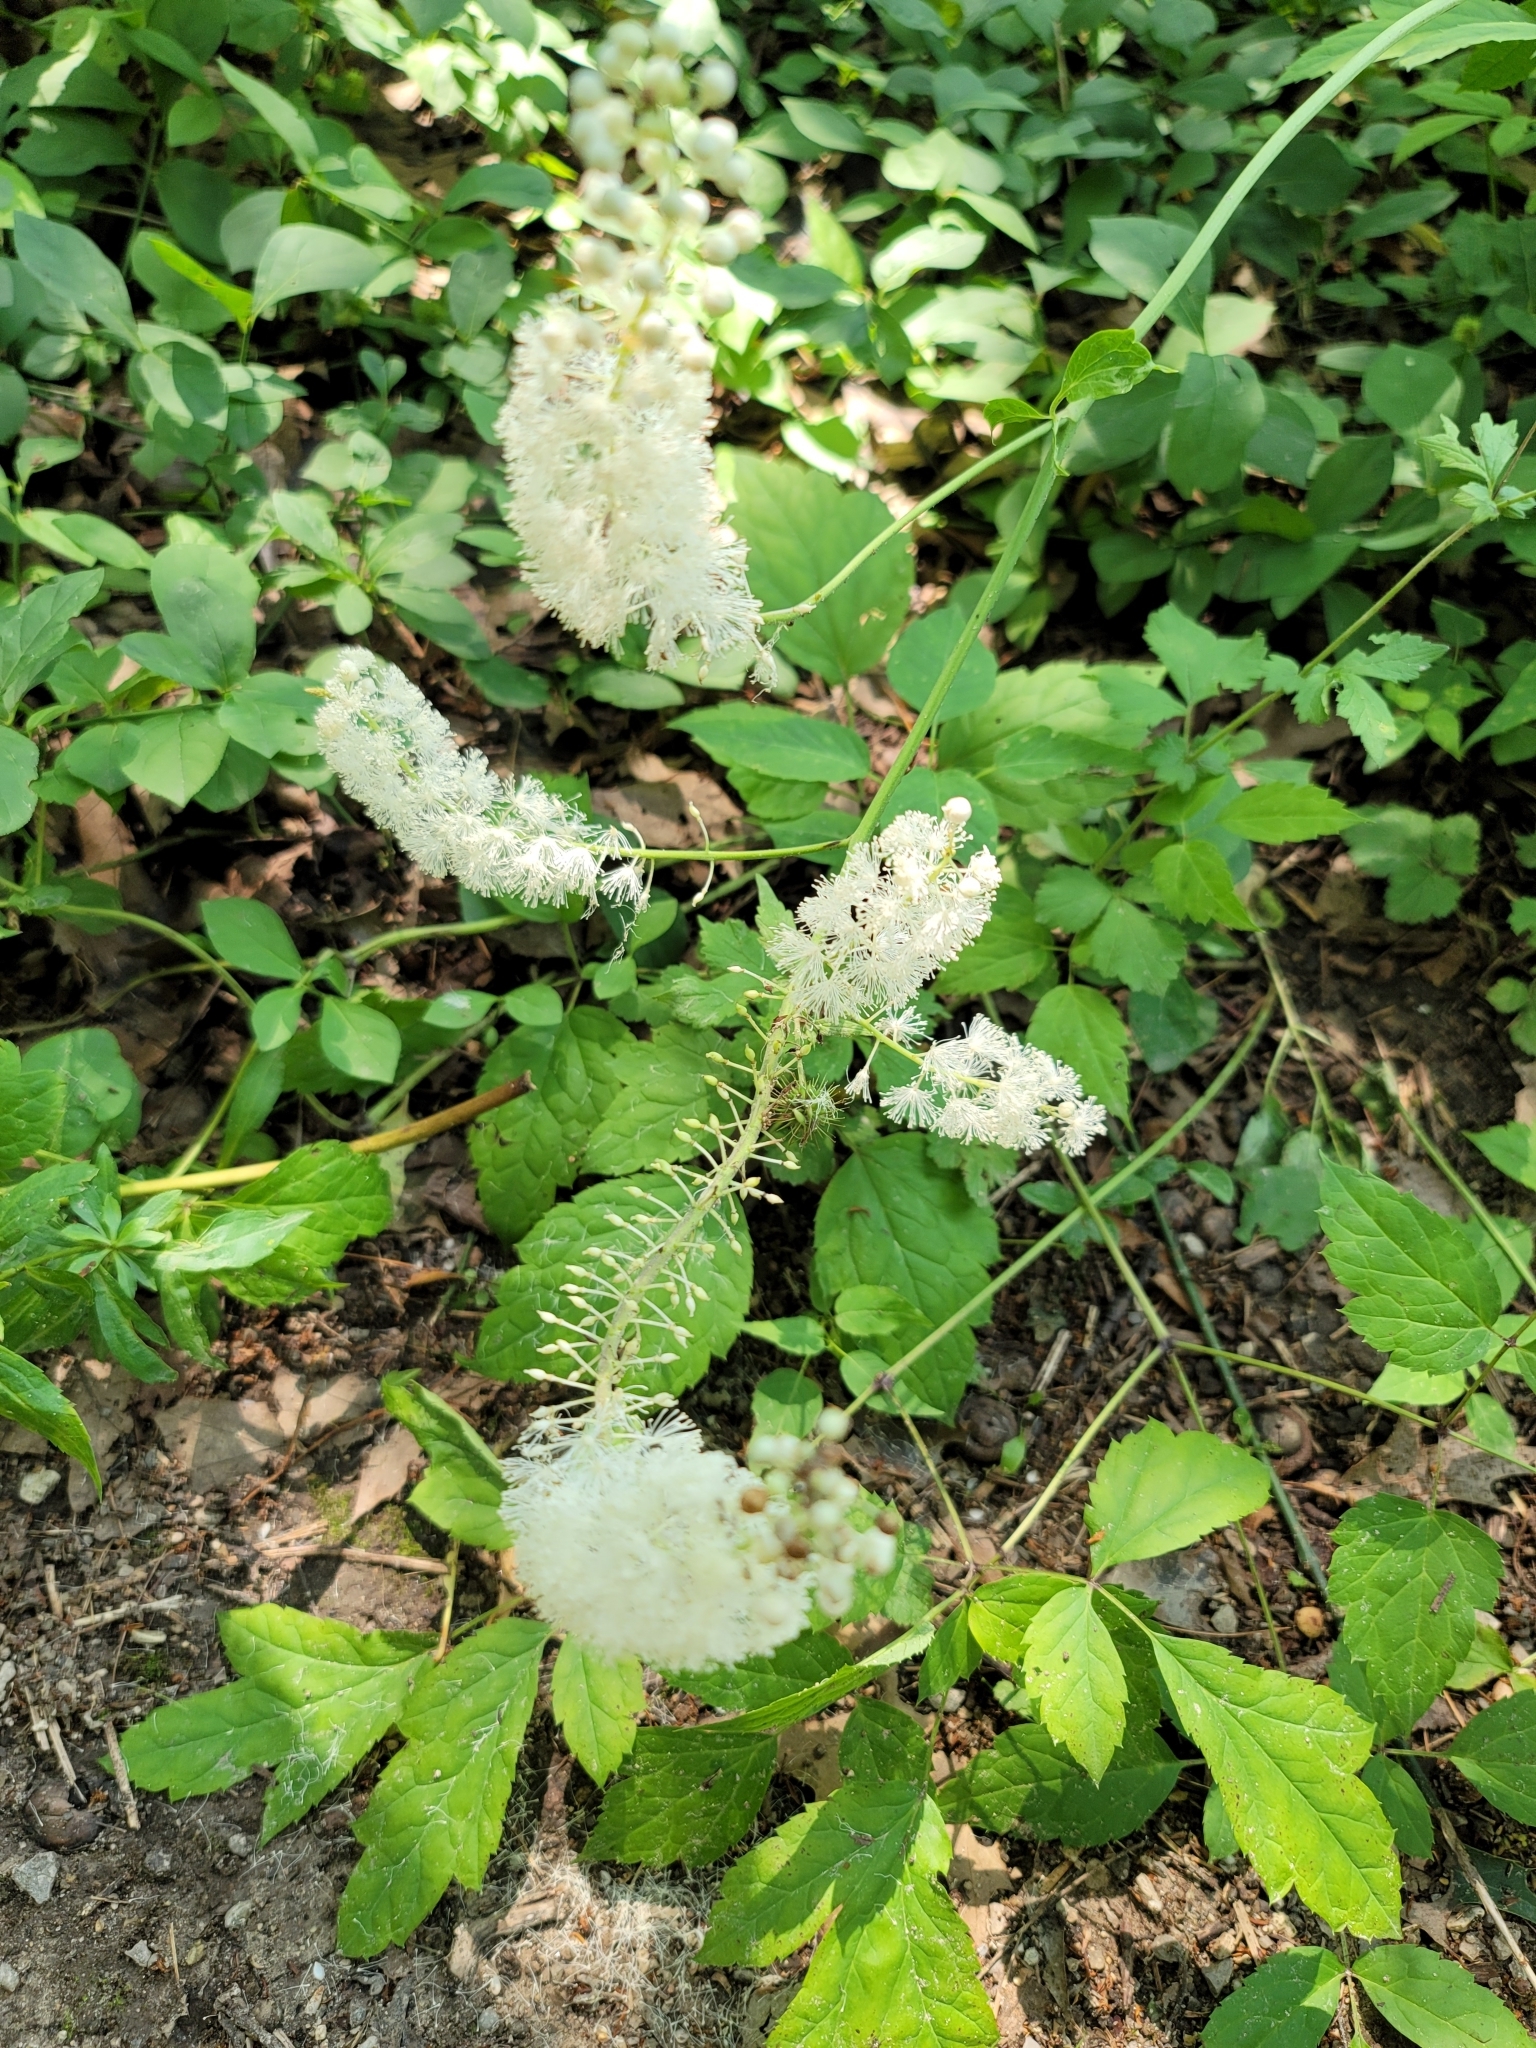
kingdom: Plantae
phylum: Tracheophyta
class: Magnoliopsida
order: Ranunculales
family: Ranunculaceae
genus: Actaea
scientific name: Actaea racemosa
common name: Black cohosh
